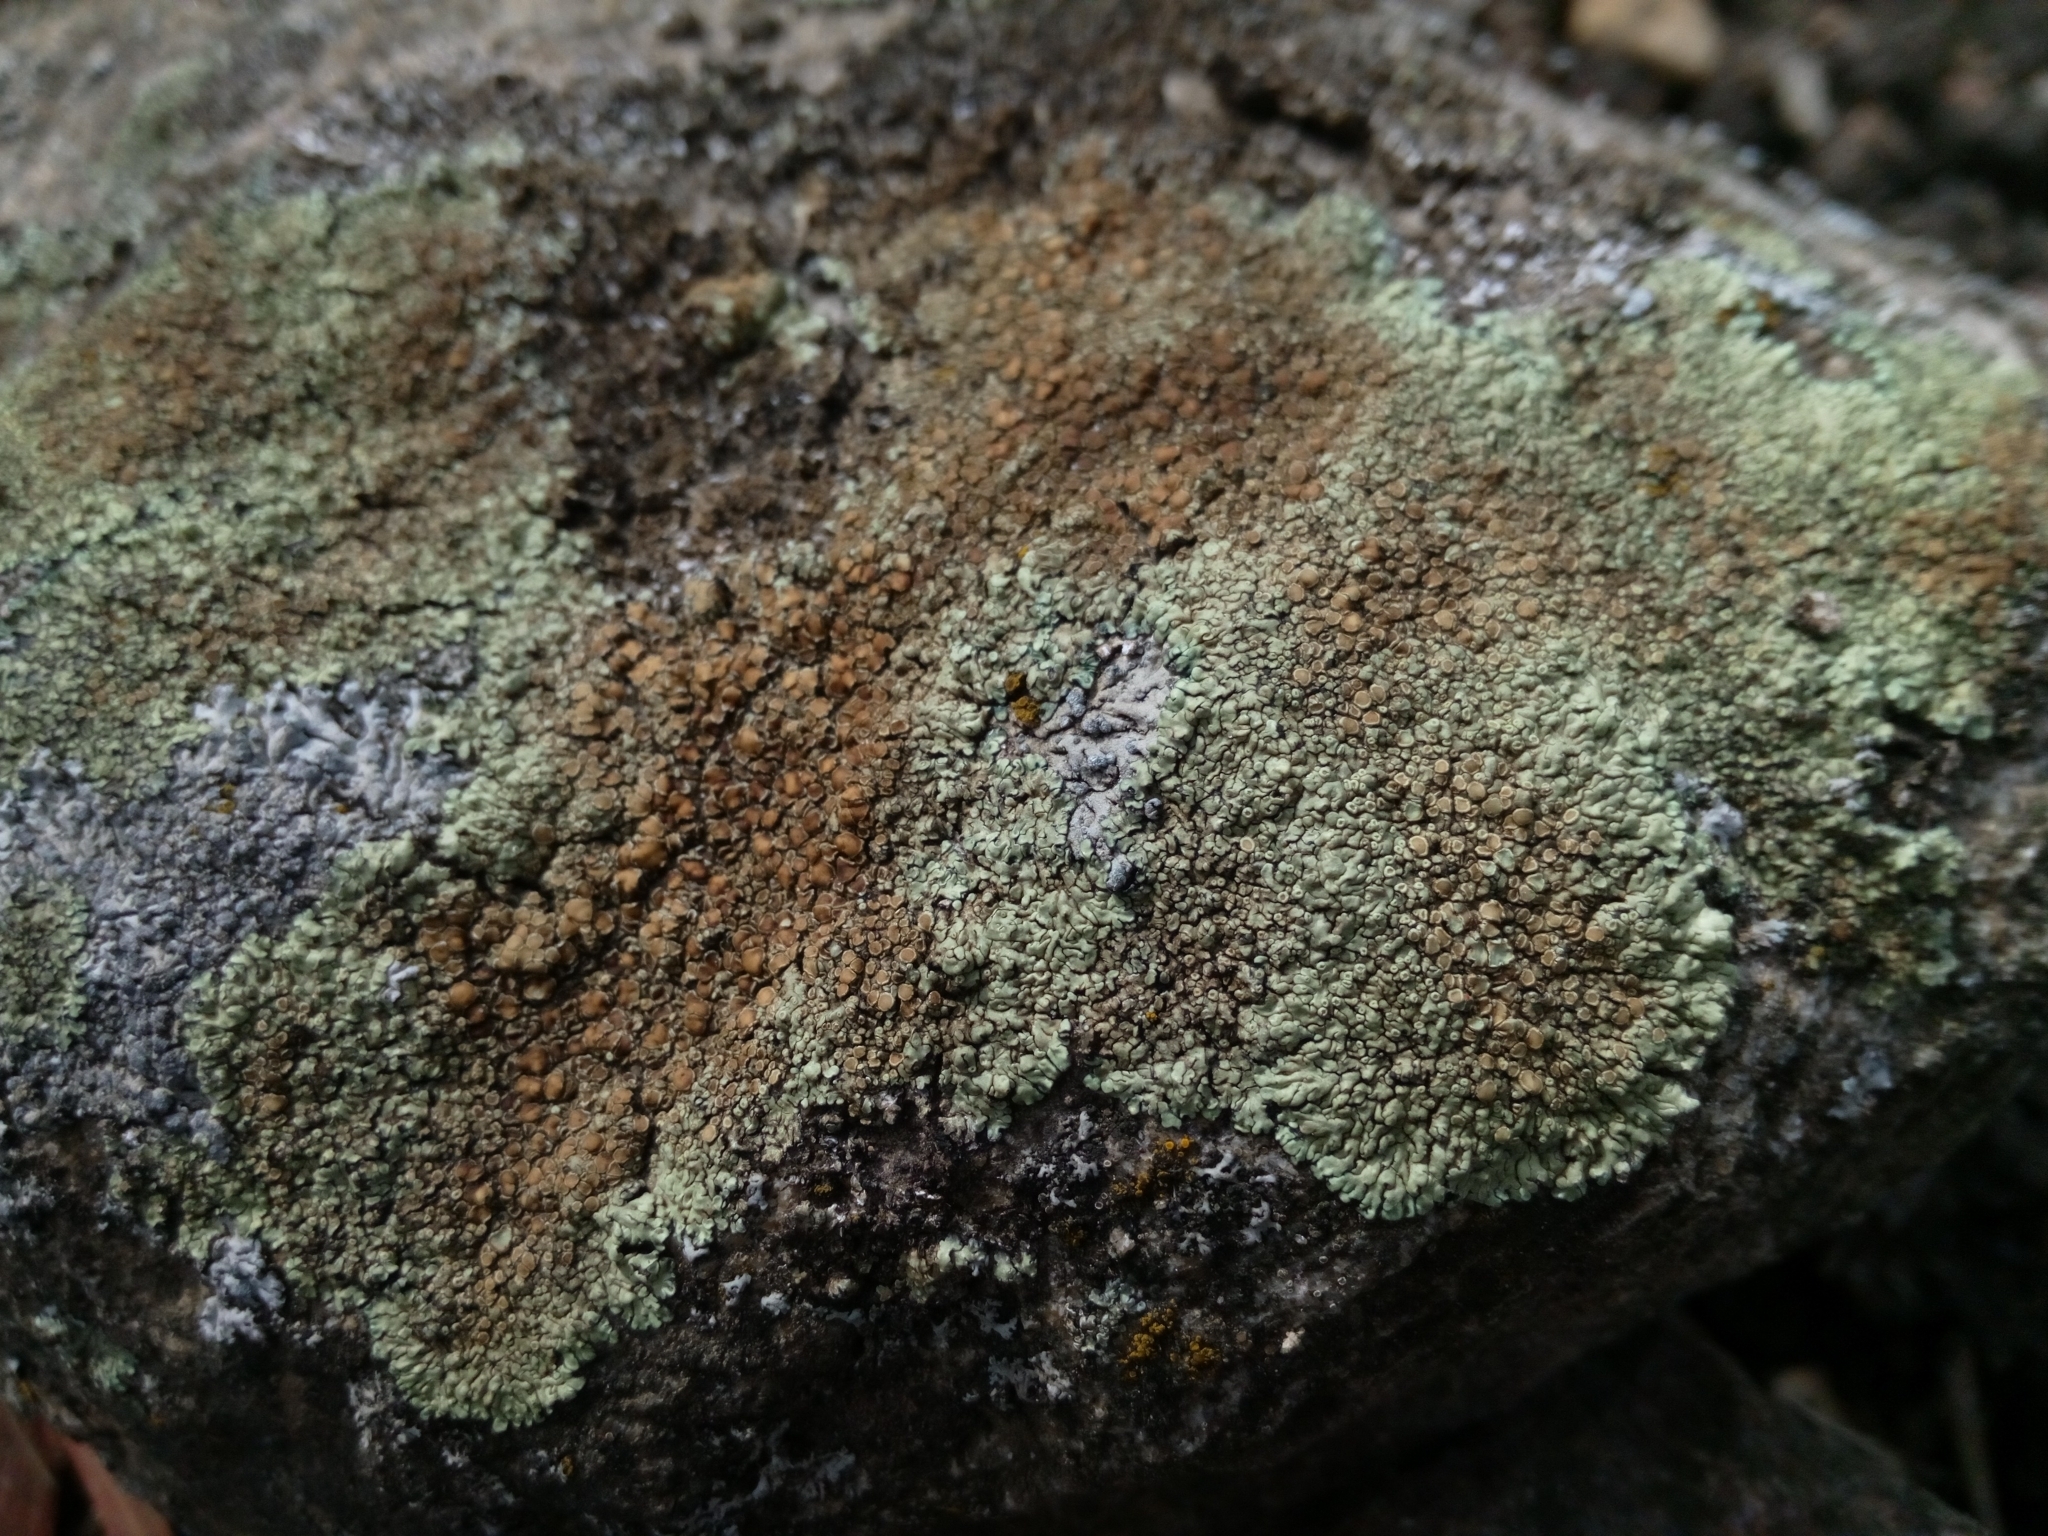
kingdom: Fungi
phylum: Ascomycota
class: Lecanoromycetes
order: Lecanorales
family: Lecanoraceae
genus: Protoparmeliopsis
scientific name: Protoparmeliopsis muralis
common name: Stonewall rim lichen
